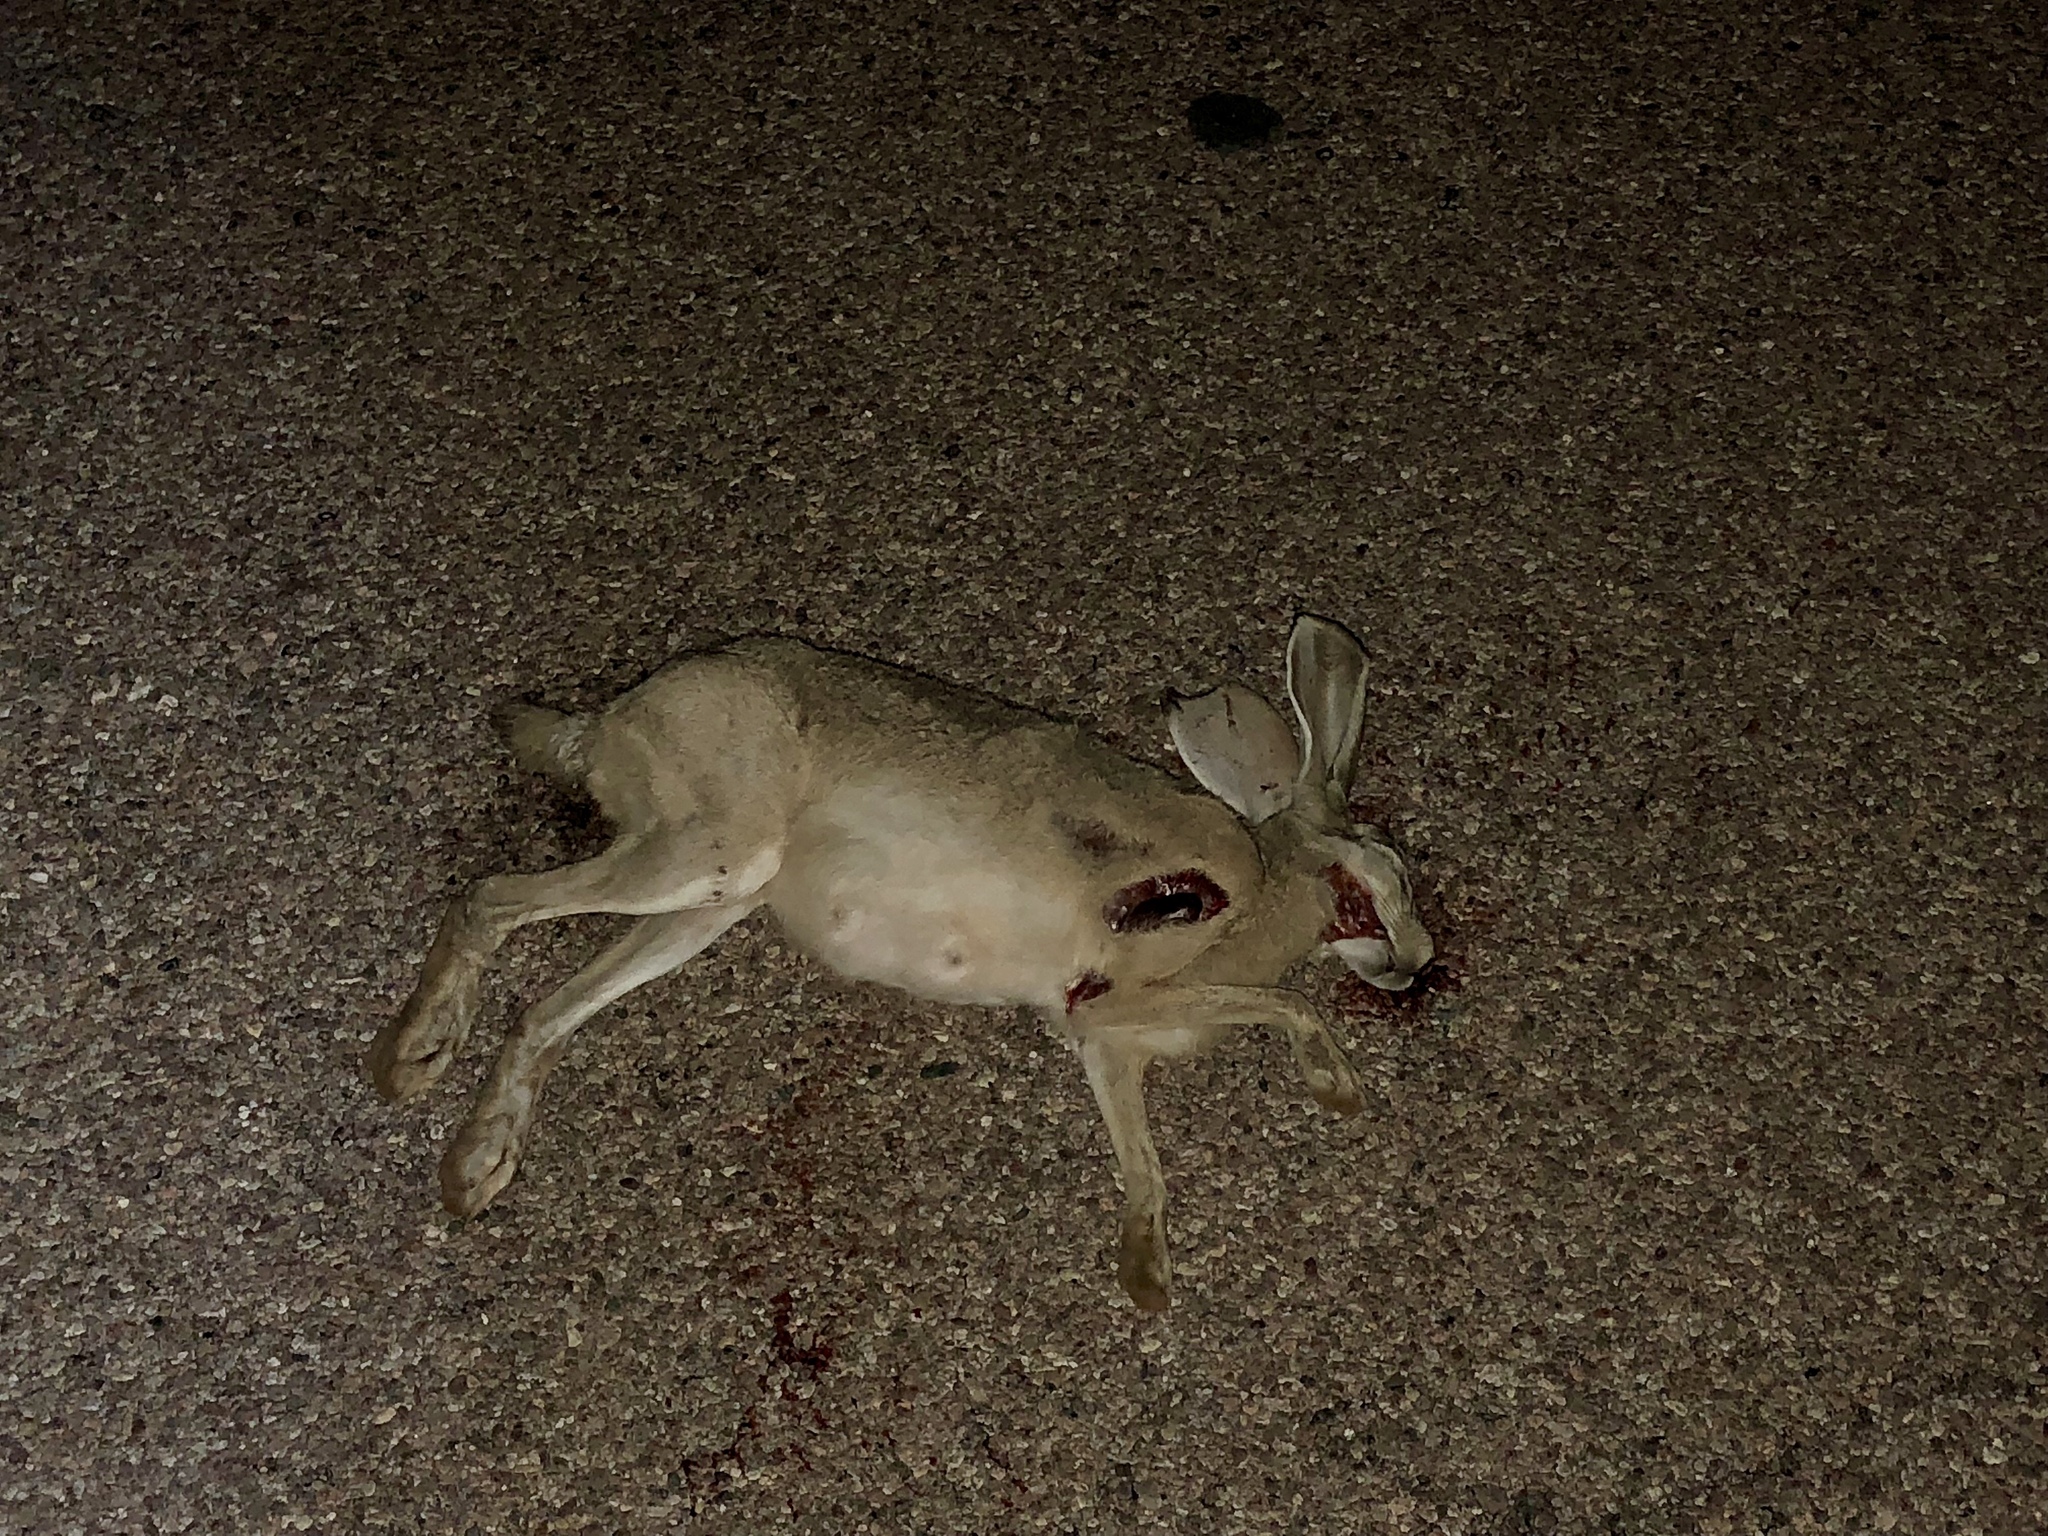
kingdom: Animalia
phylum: Chordata
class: Mammalia
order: Lagomorpha
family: Leporidae
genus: Lepus
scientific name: Lepus californicus
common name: Black-tailed jackrabbit
